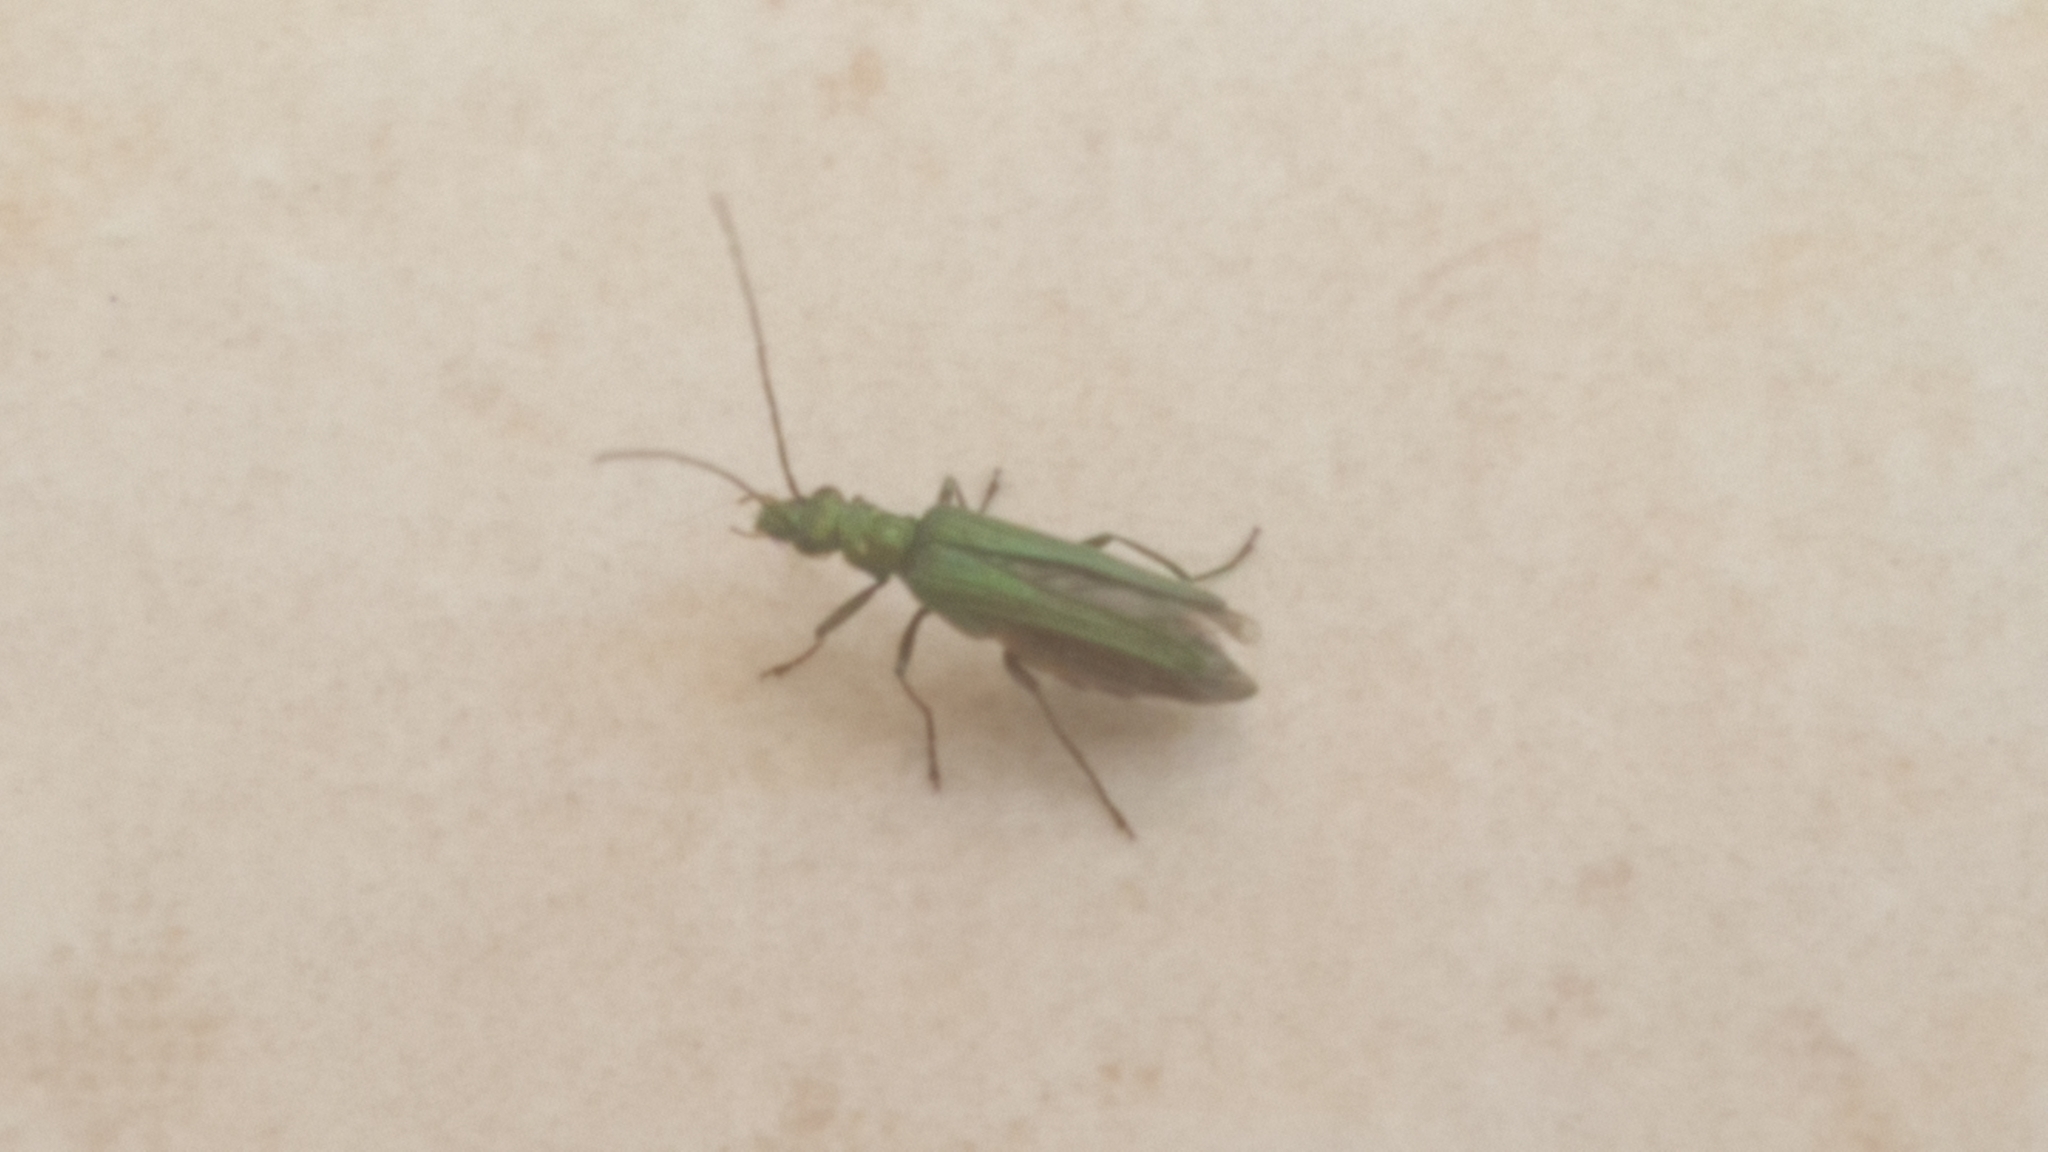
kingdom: Animalia
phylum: Arthropoda
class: Insecta
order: Coleoptera
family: Oedemeridae
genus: Oedemera
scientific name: Oedemera nobilis
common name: Swollen-thighed beetle
